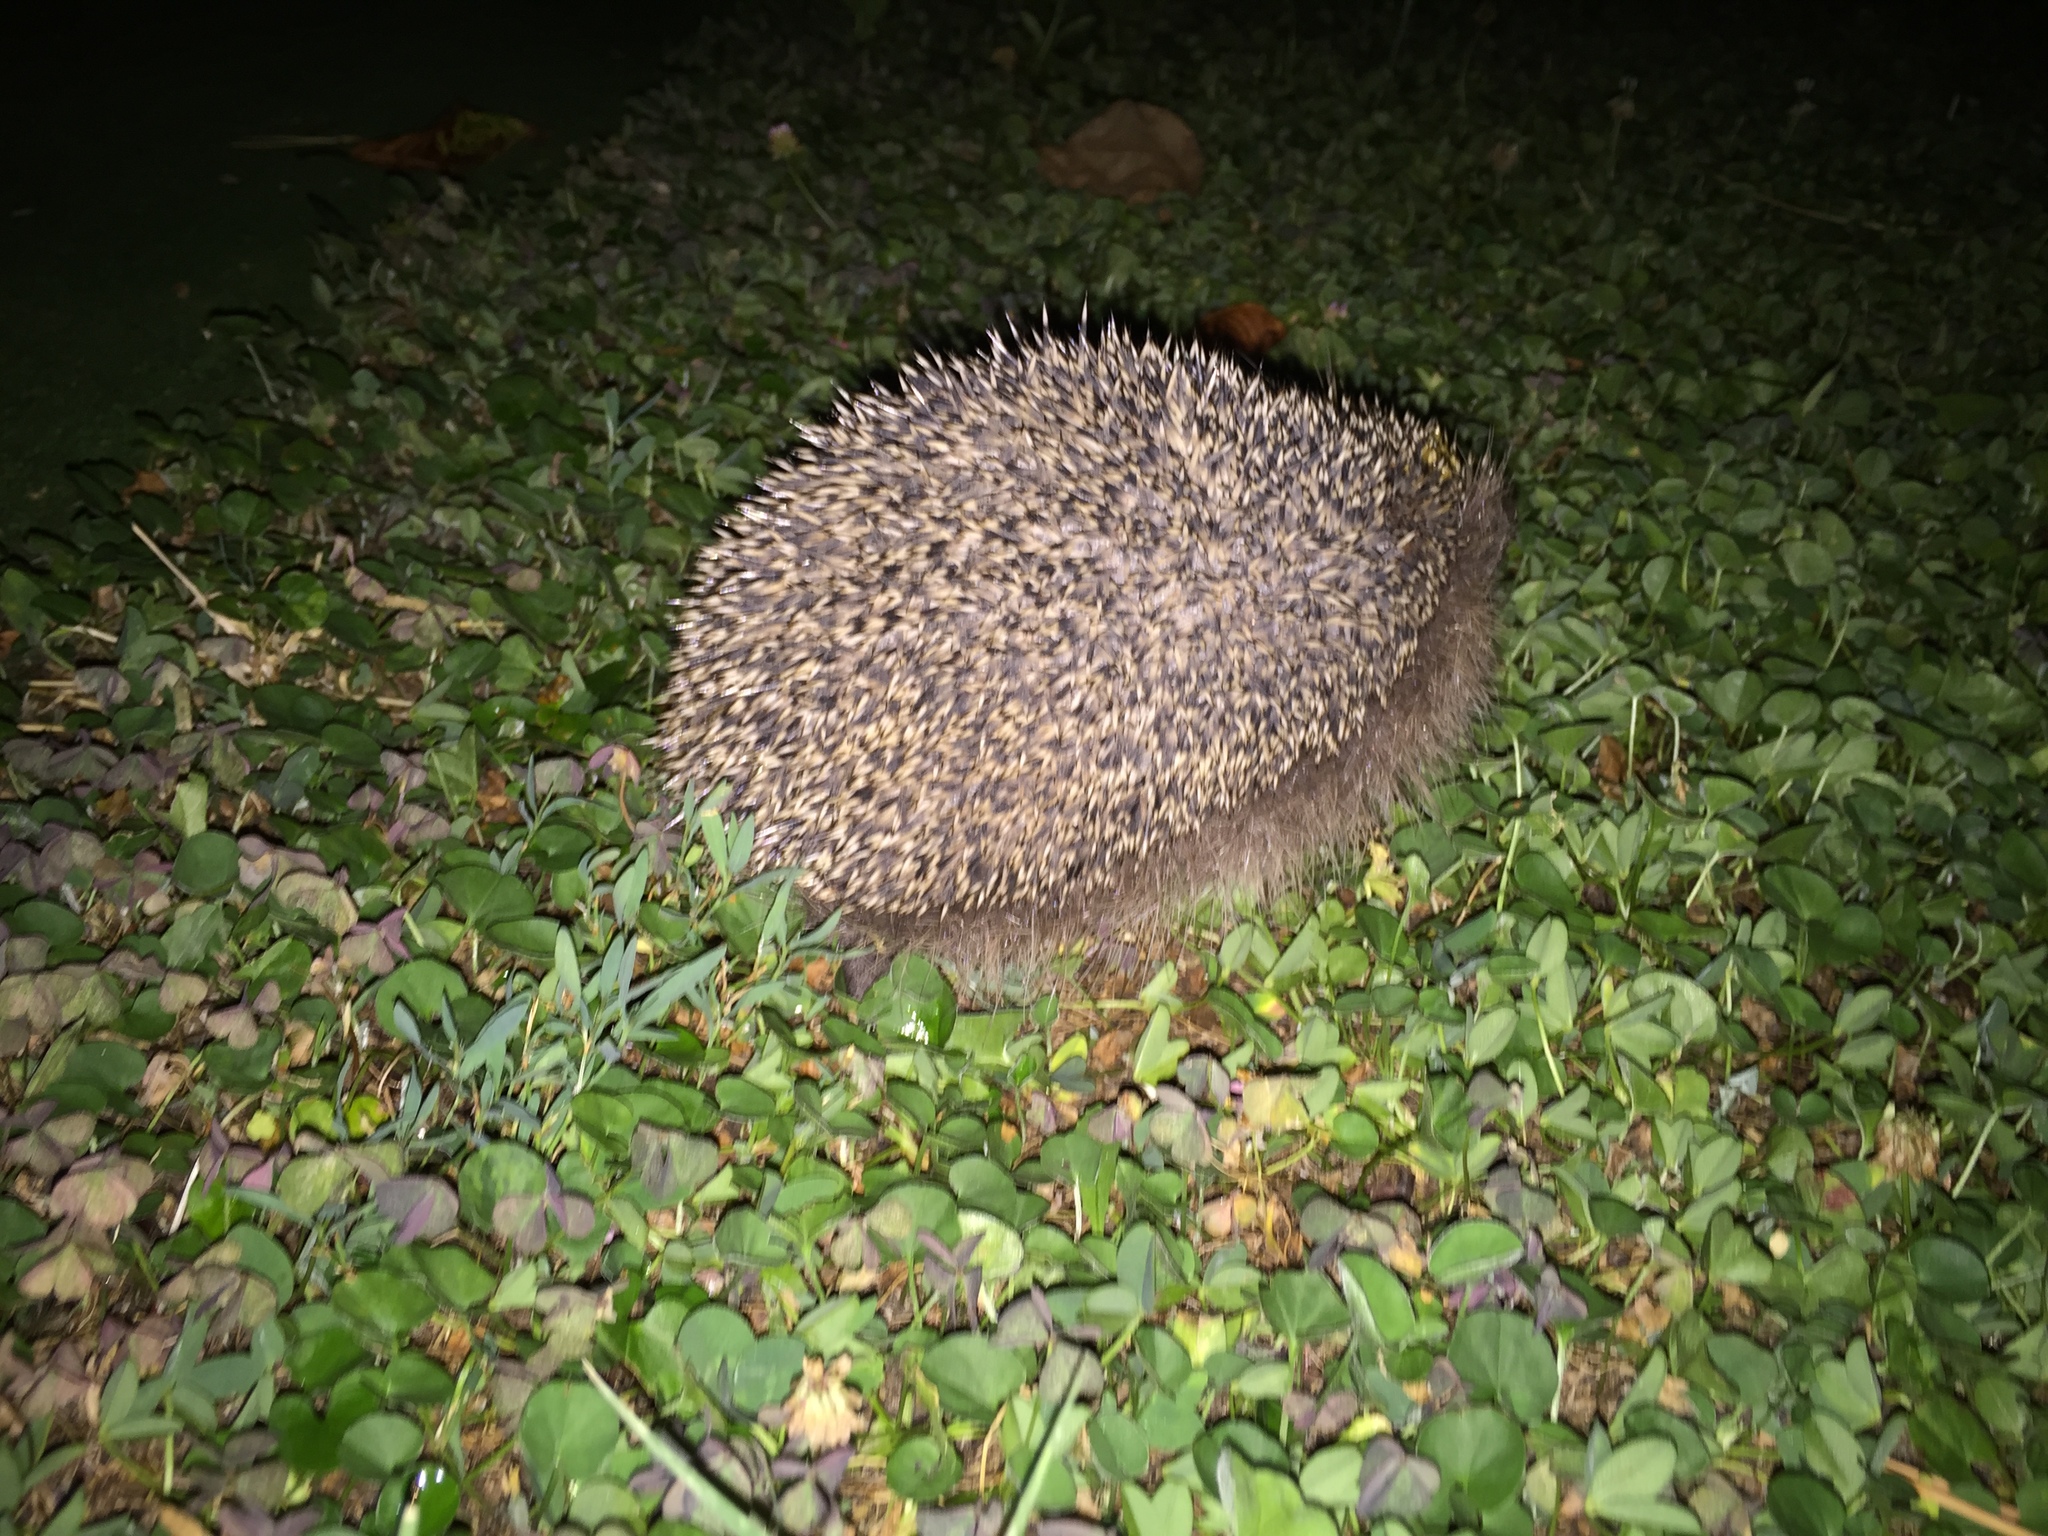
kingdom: Animalia
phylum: Chordata
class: Mammalia
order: Erinaceomorpha
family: Erinaceidae
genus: Erinaceus
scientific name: Erinaceus europaeus
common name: West european hedgehog
